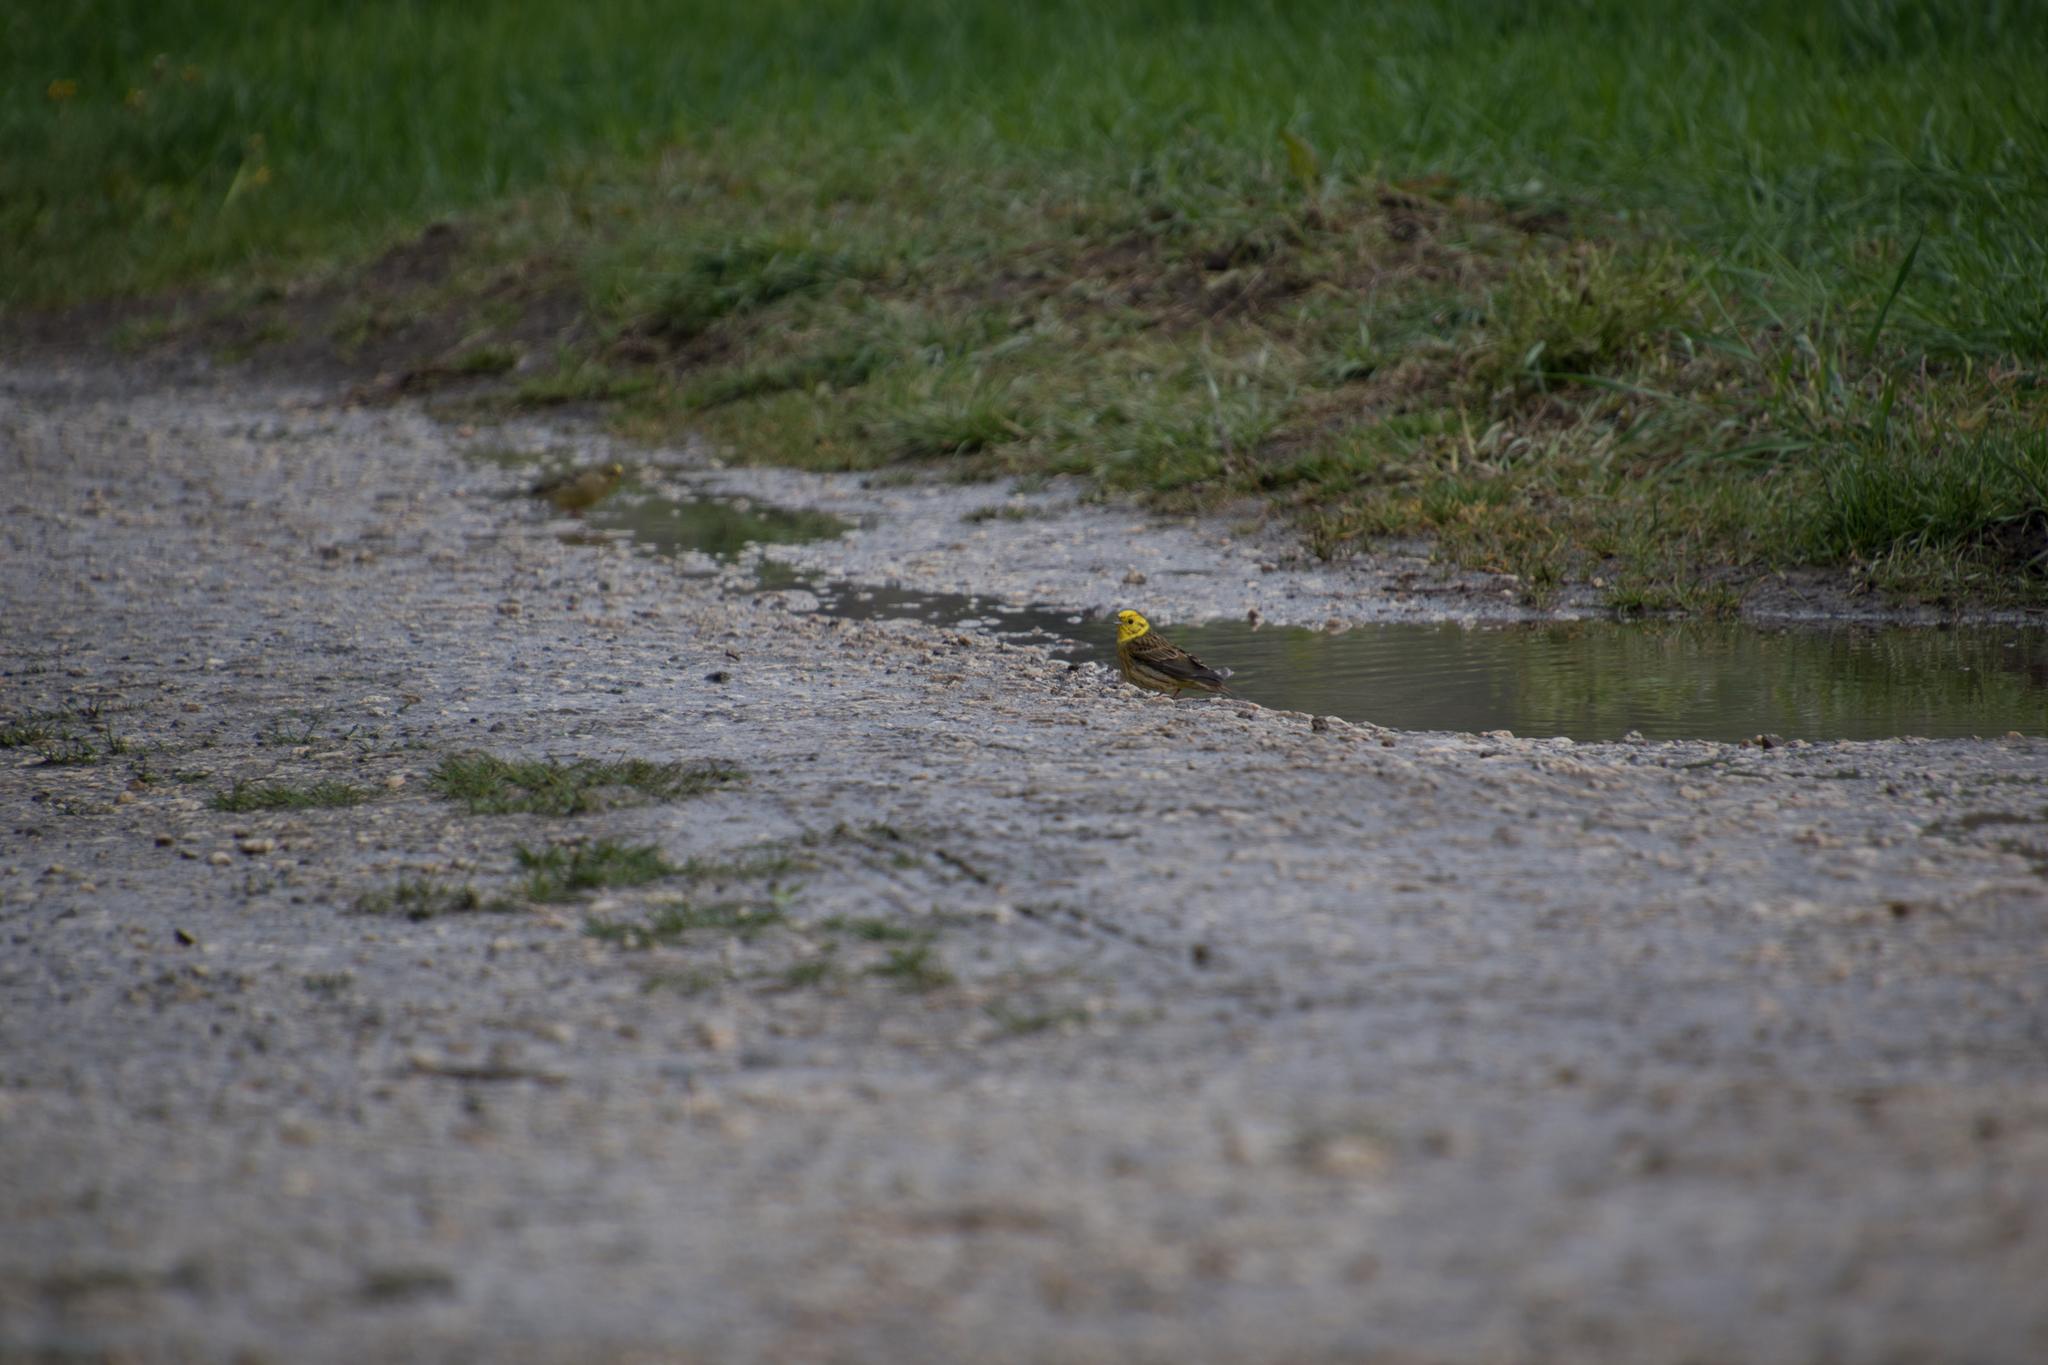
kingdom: Animalia
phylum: Chordata
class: Aves
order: Passeriformes
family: Emberizidae
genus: Emberiza
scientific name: Emberiza citrinella
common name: Yellowhammer
